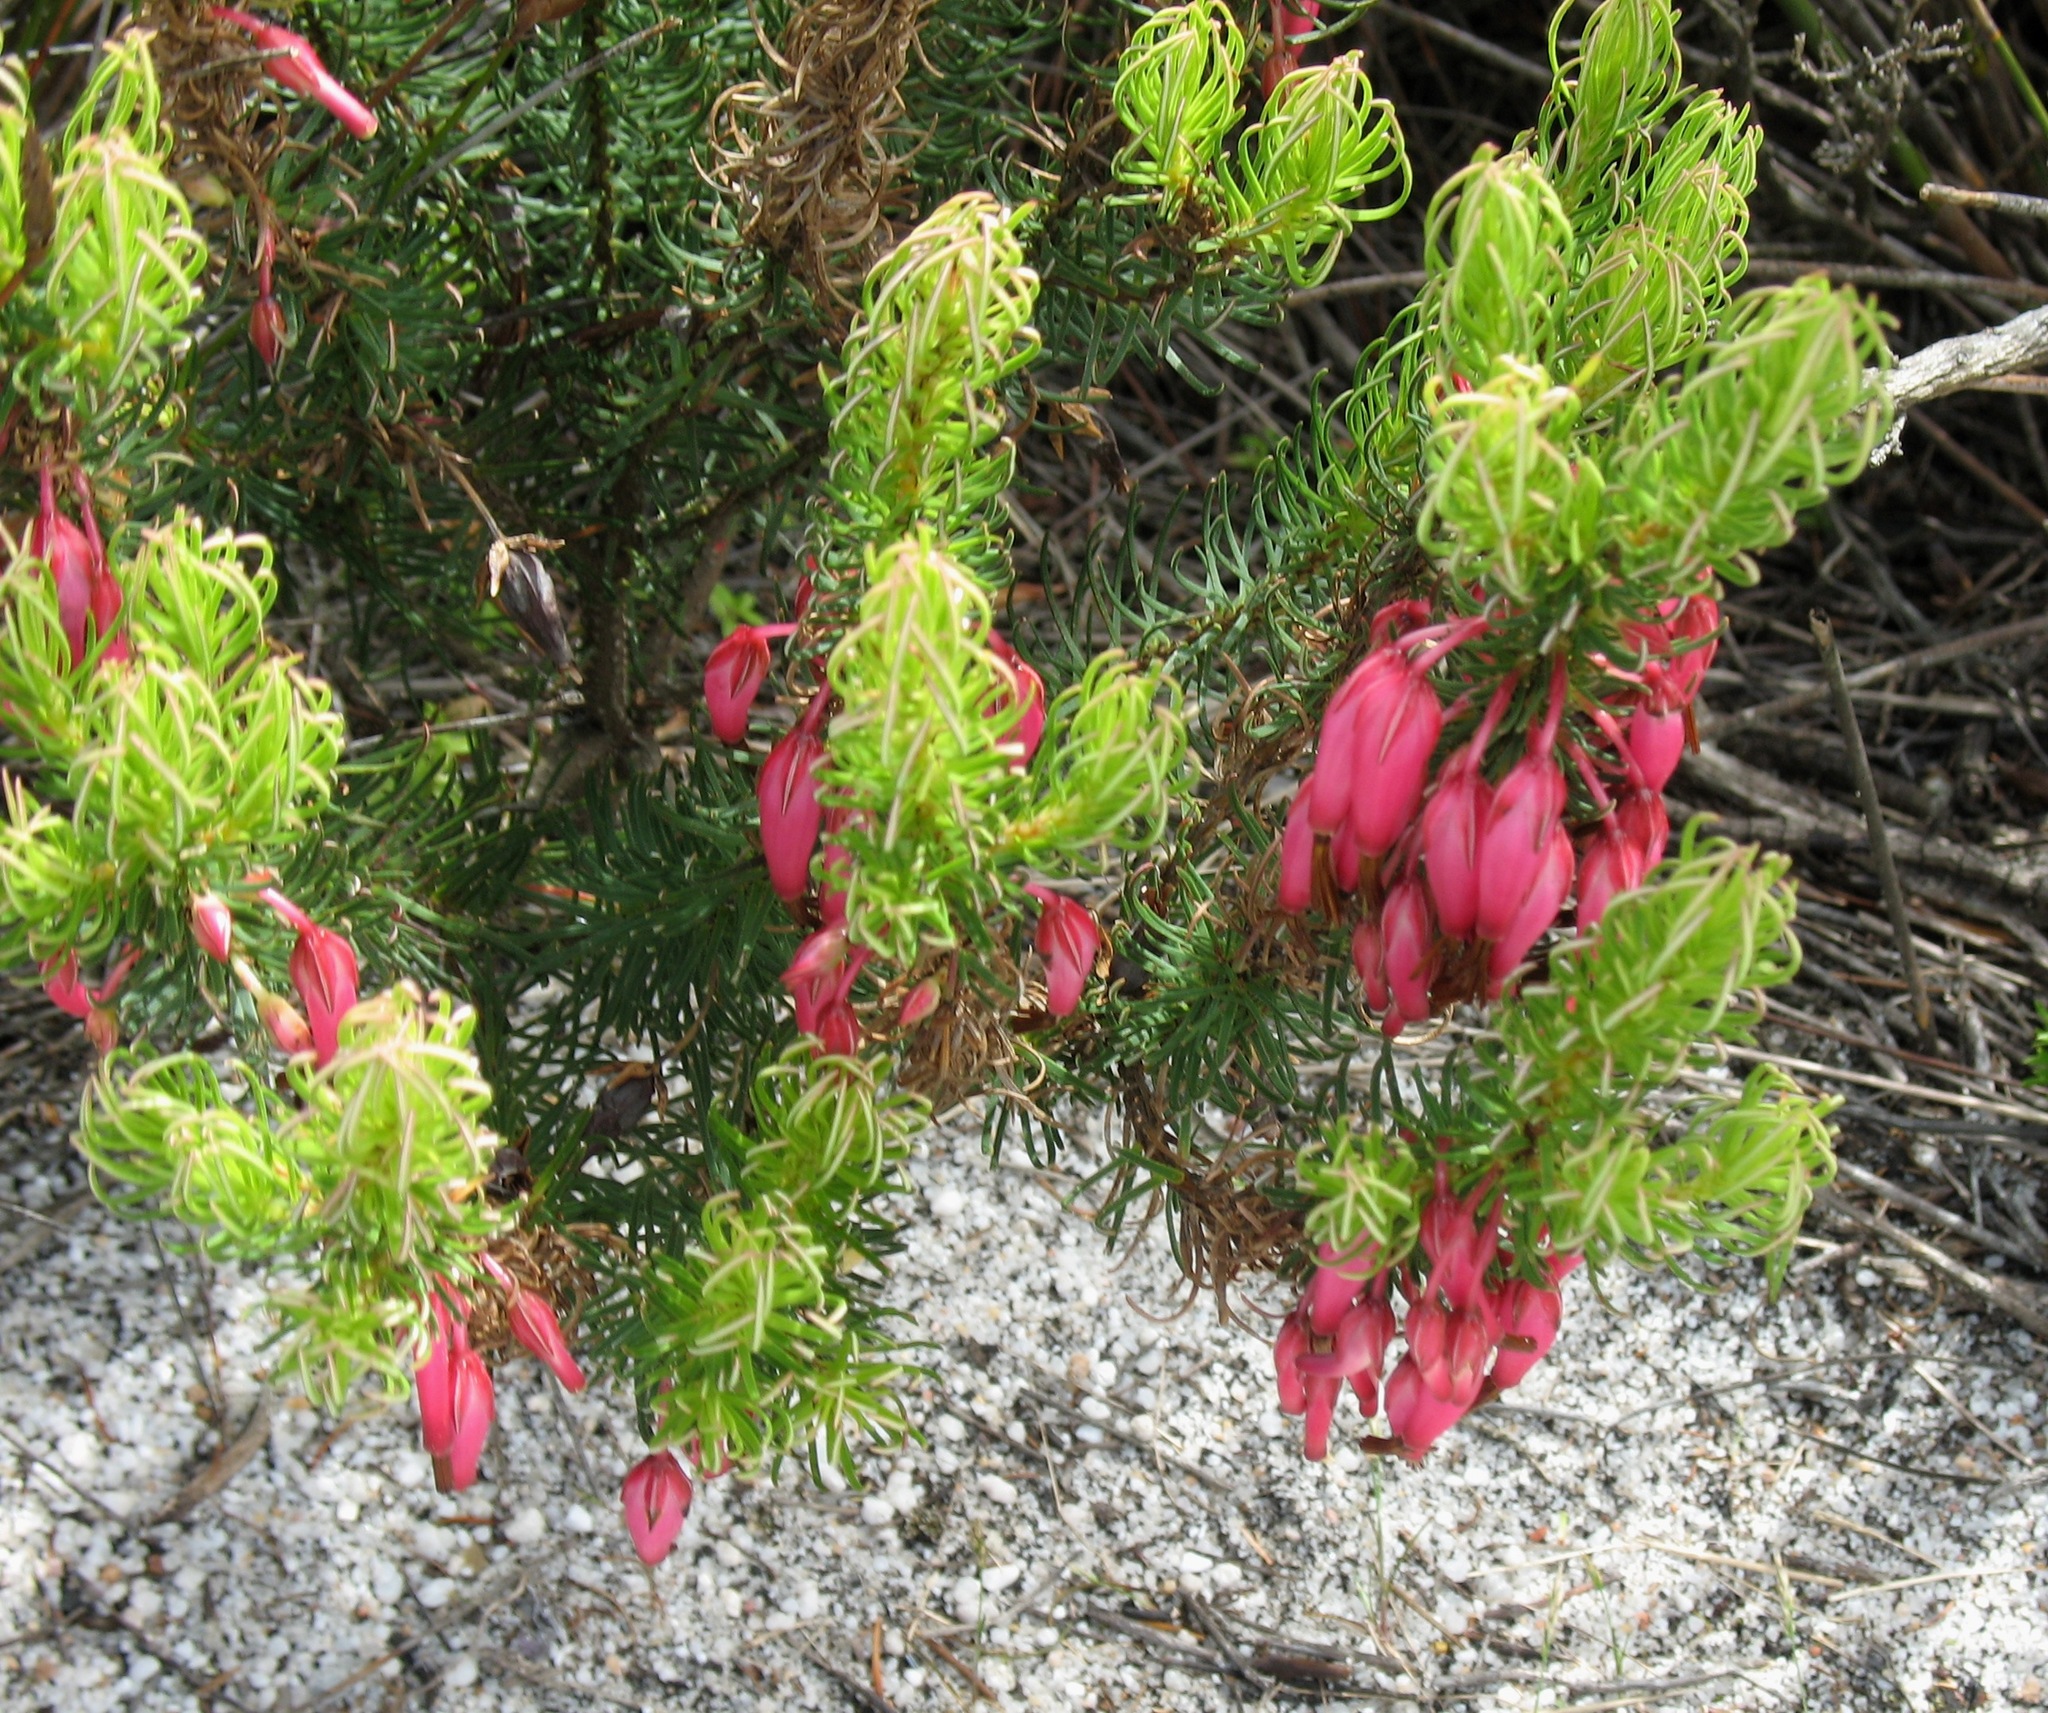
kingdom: Plantae
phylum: Tracheophyta
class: Magnoliopsida
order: Ericales
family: Ericaceae
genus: Erica
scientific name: Erica plukenetii
